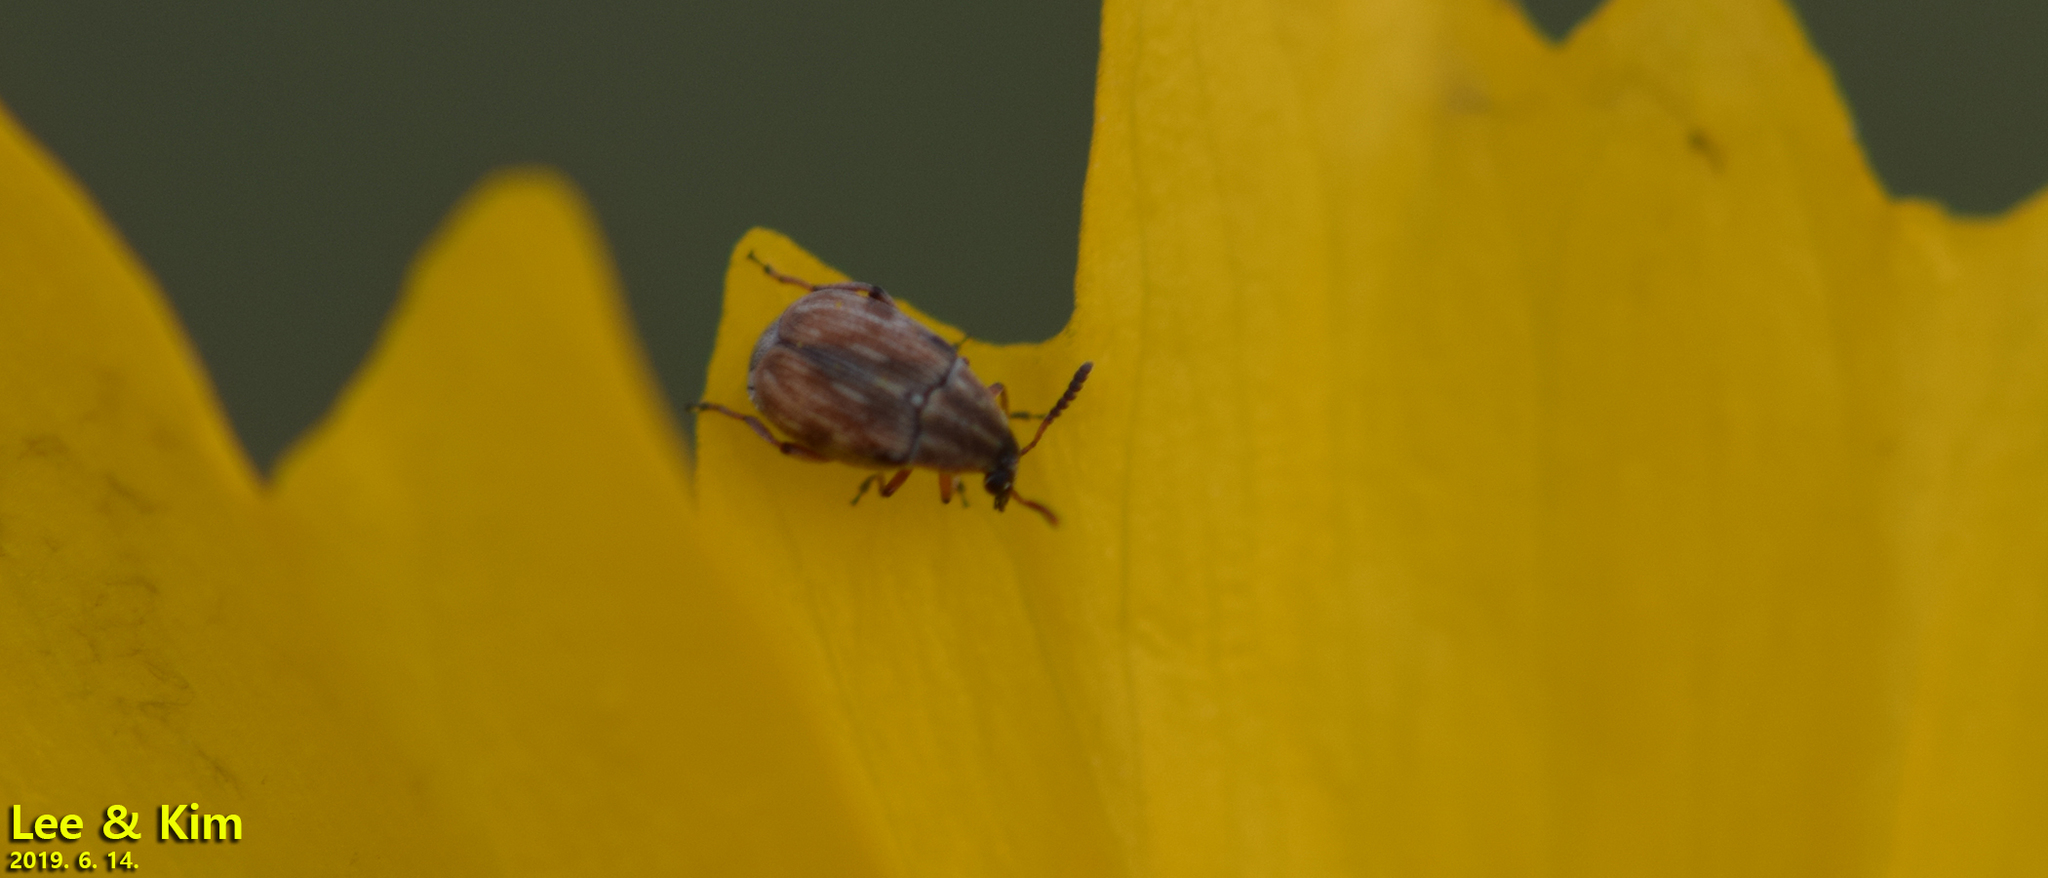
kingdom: Animalia
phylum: Arthropoda
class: Insecta
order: Coleoptera
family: Chrysomelidae
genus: Dactylispa
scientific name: Dactylispa pallidipennis
